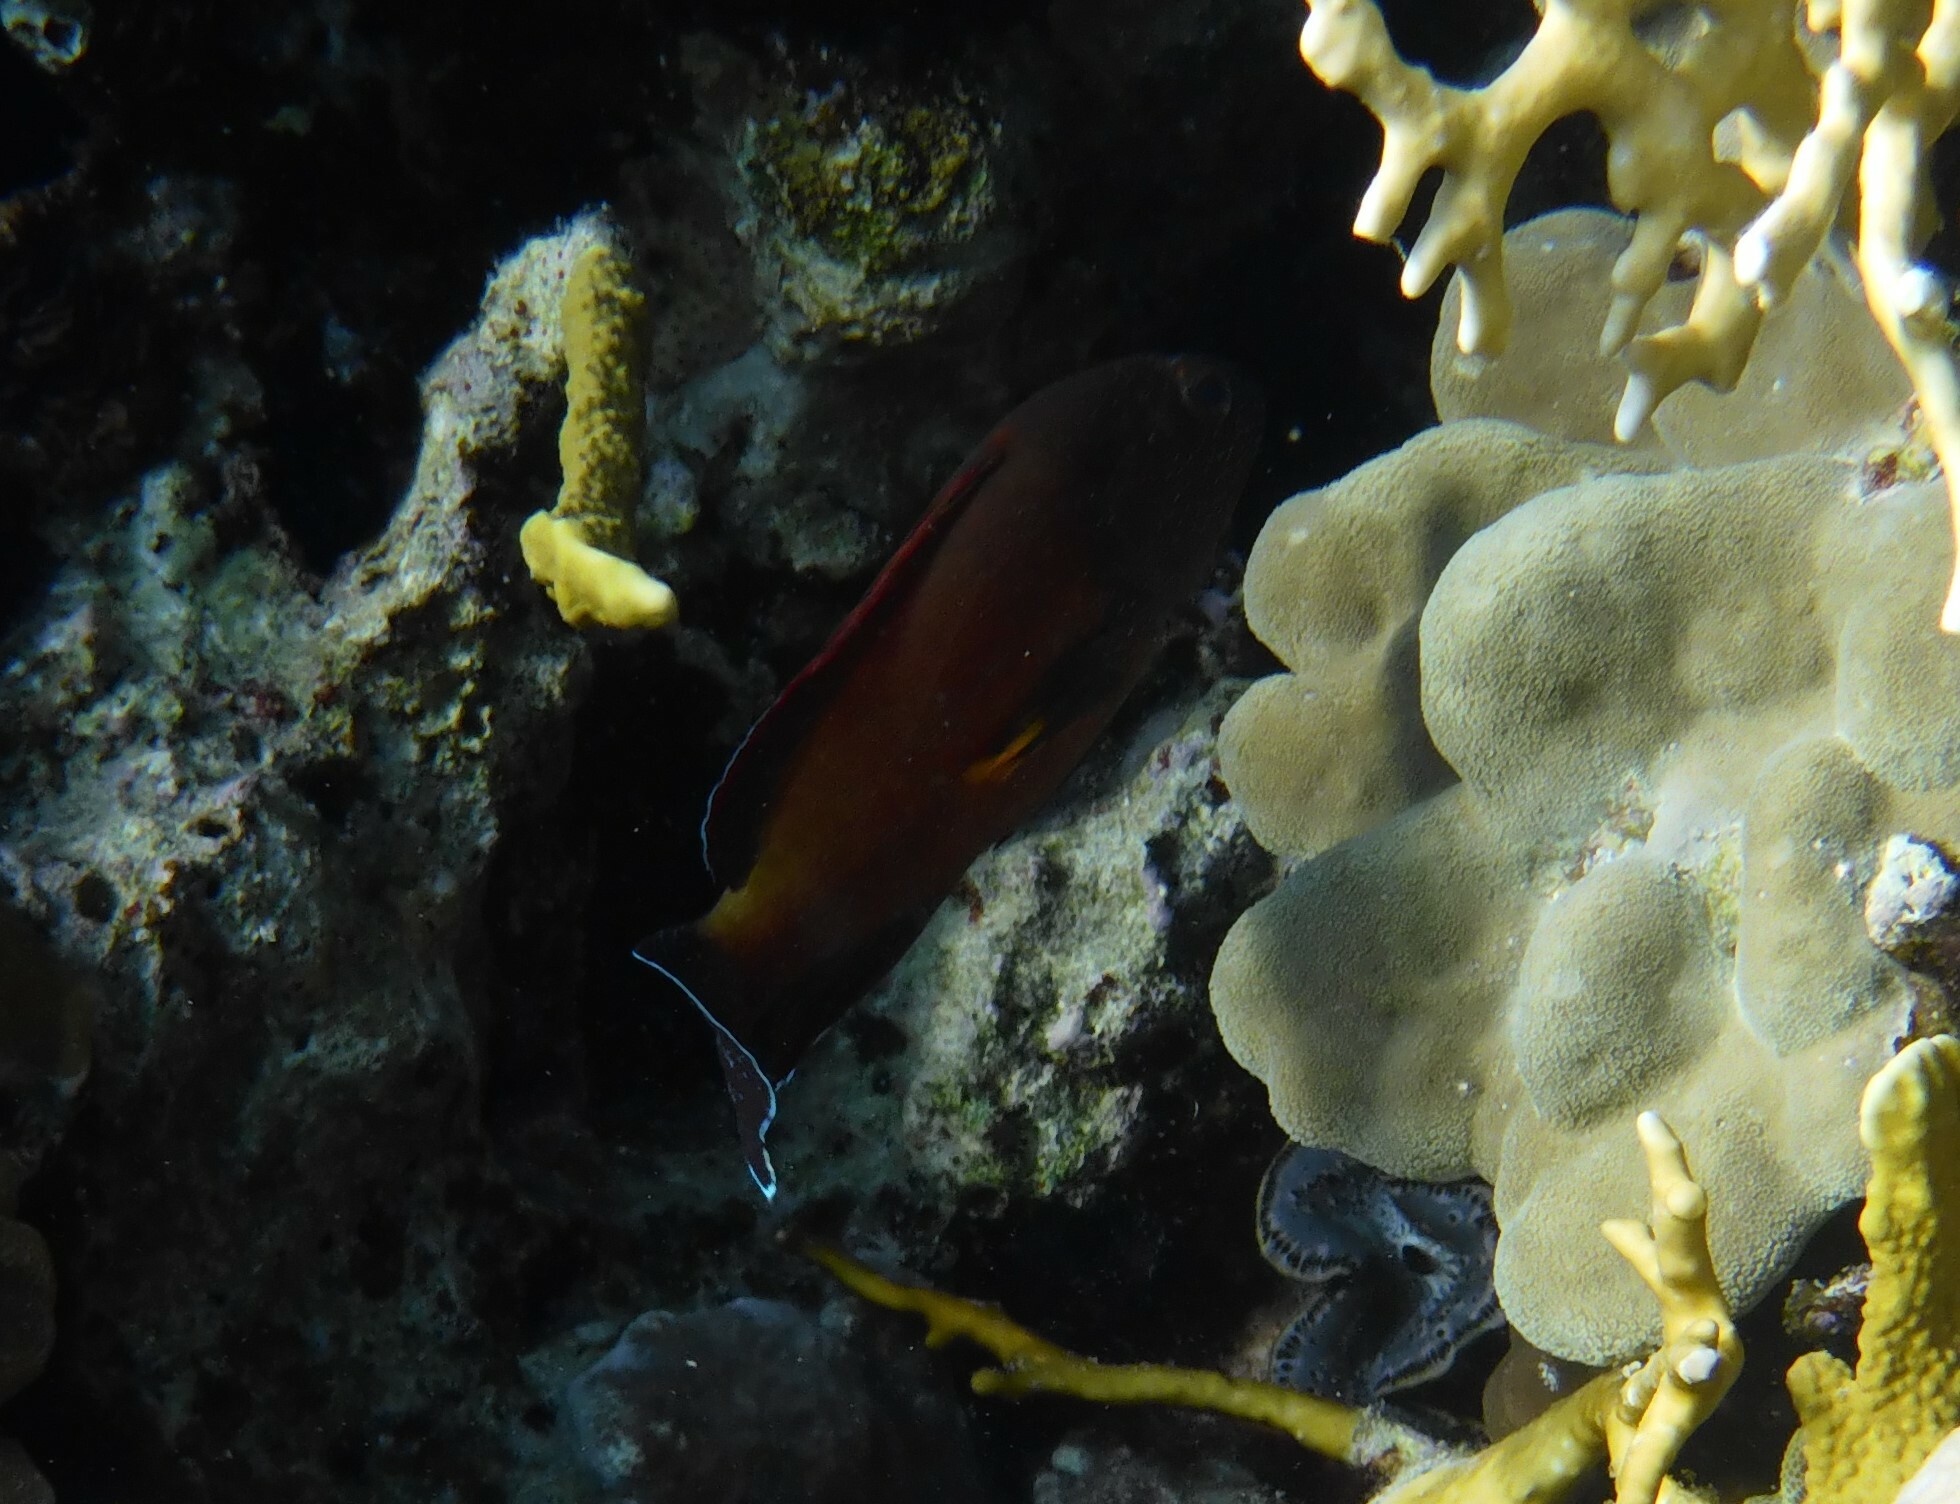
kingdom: Animalia
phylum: Chordata
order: Perciformes
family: Serranidae
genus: Cephalopholis
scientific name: Cephalopholis hemistiktos
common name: Halfspotted hind
